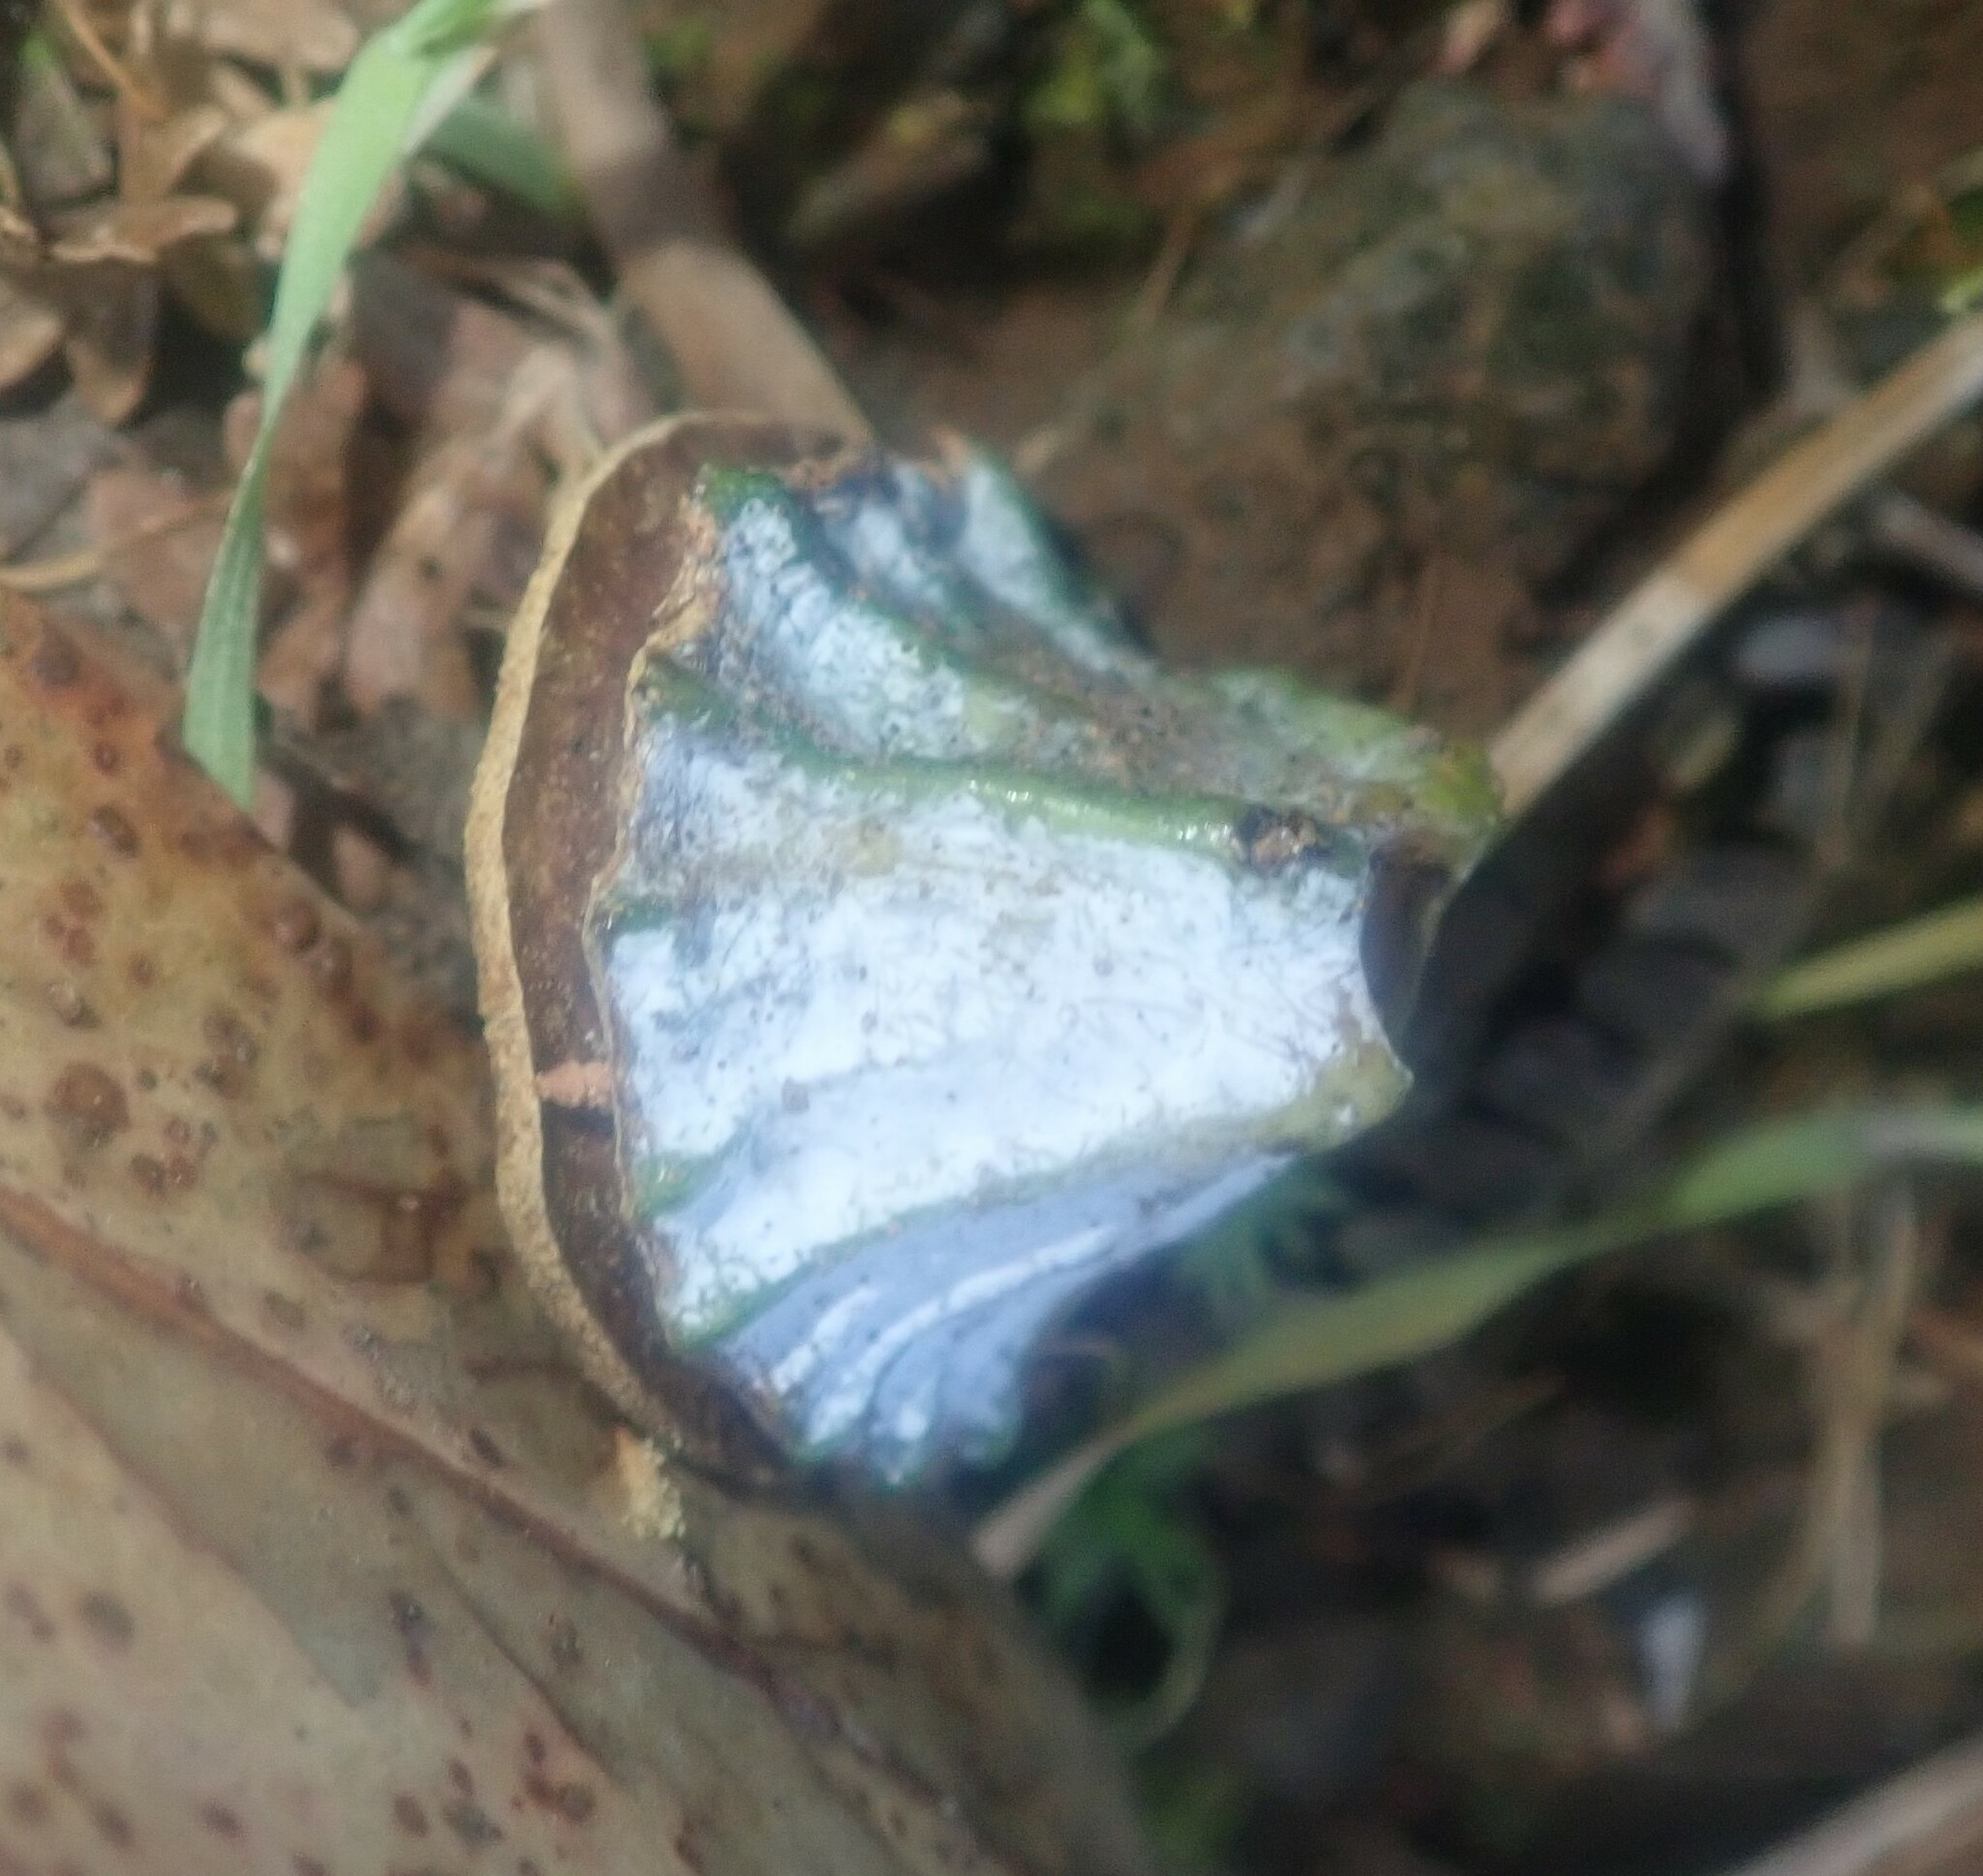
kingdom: Plantae
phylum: Tracheophyta
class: Magnoliopsida
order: Myrtales
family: Myrtaceae
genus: Eucalyptus
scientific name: Eucalyptus globulus
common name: Southern blue-gum
